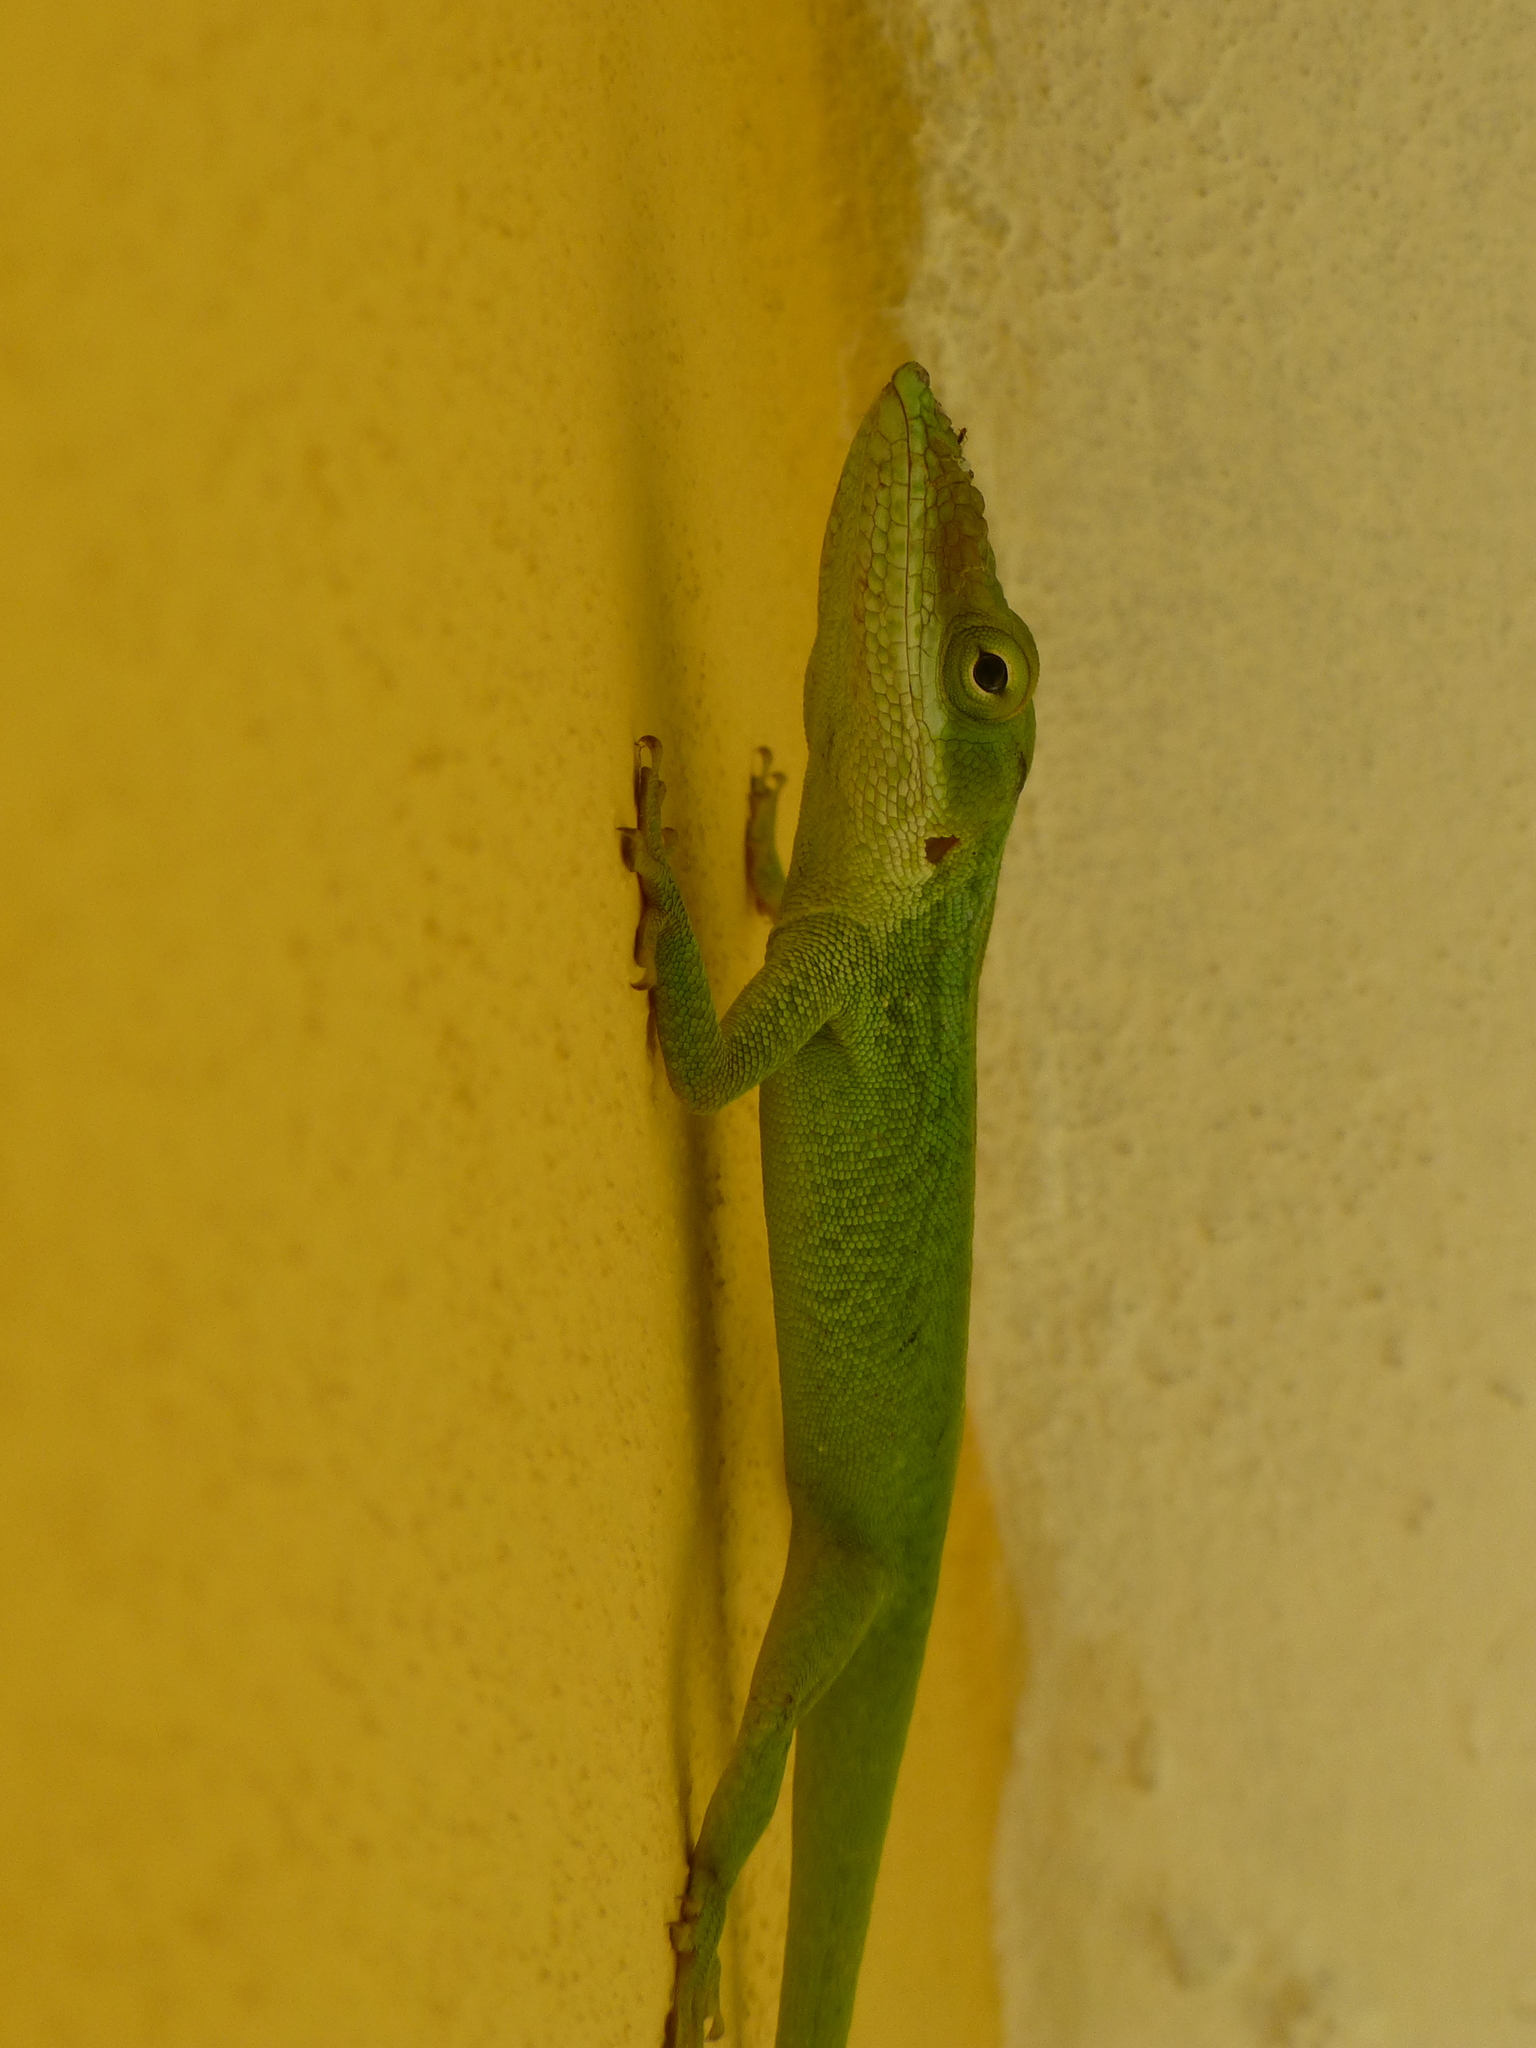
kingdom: Animalia
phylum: Chordata
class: Squamata
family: Dactyloidae
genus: Anolis
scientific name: Anolis porcatus
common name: Cuban green anole
